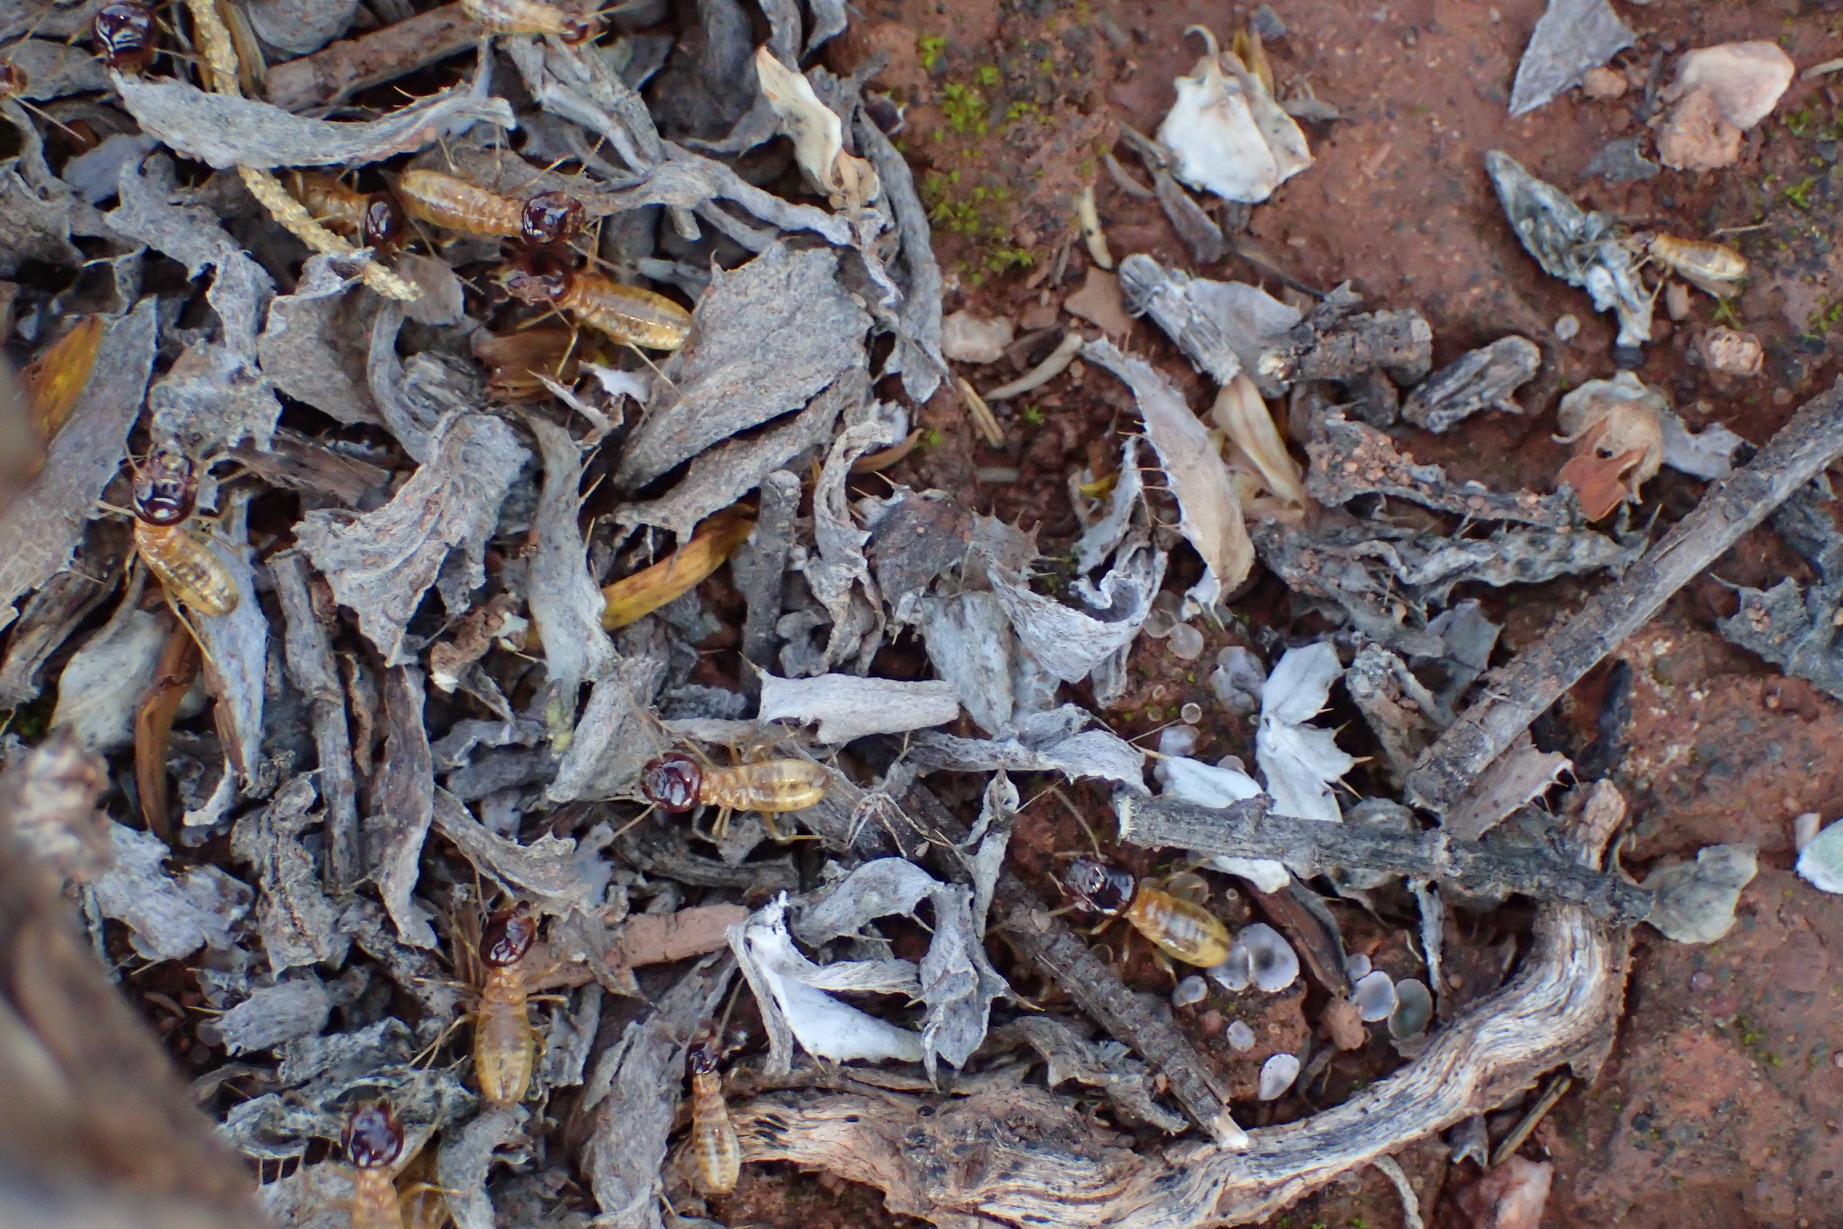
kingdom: Animalia
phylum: Arthropoda
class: Insecta
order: Blattodea
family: Hodotermitidae
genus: Microhodotermes
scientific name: Microhodotermes viator
